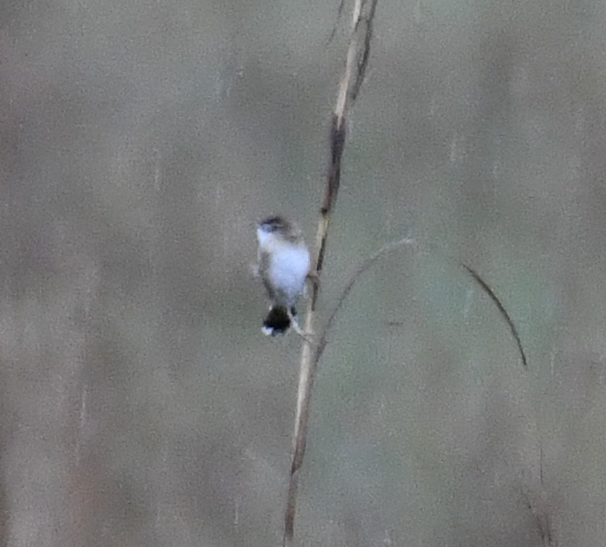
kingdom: Animalia
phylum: Chordata
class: Aves
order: Passeriformes
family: Cisticolidae
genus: Cisticola
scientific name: Cisticola juncidis
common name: Zitting cisticola
